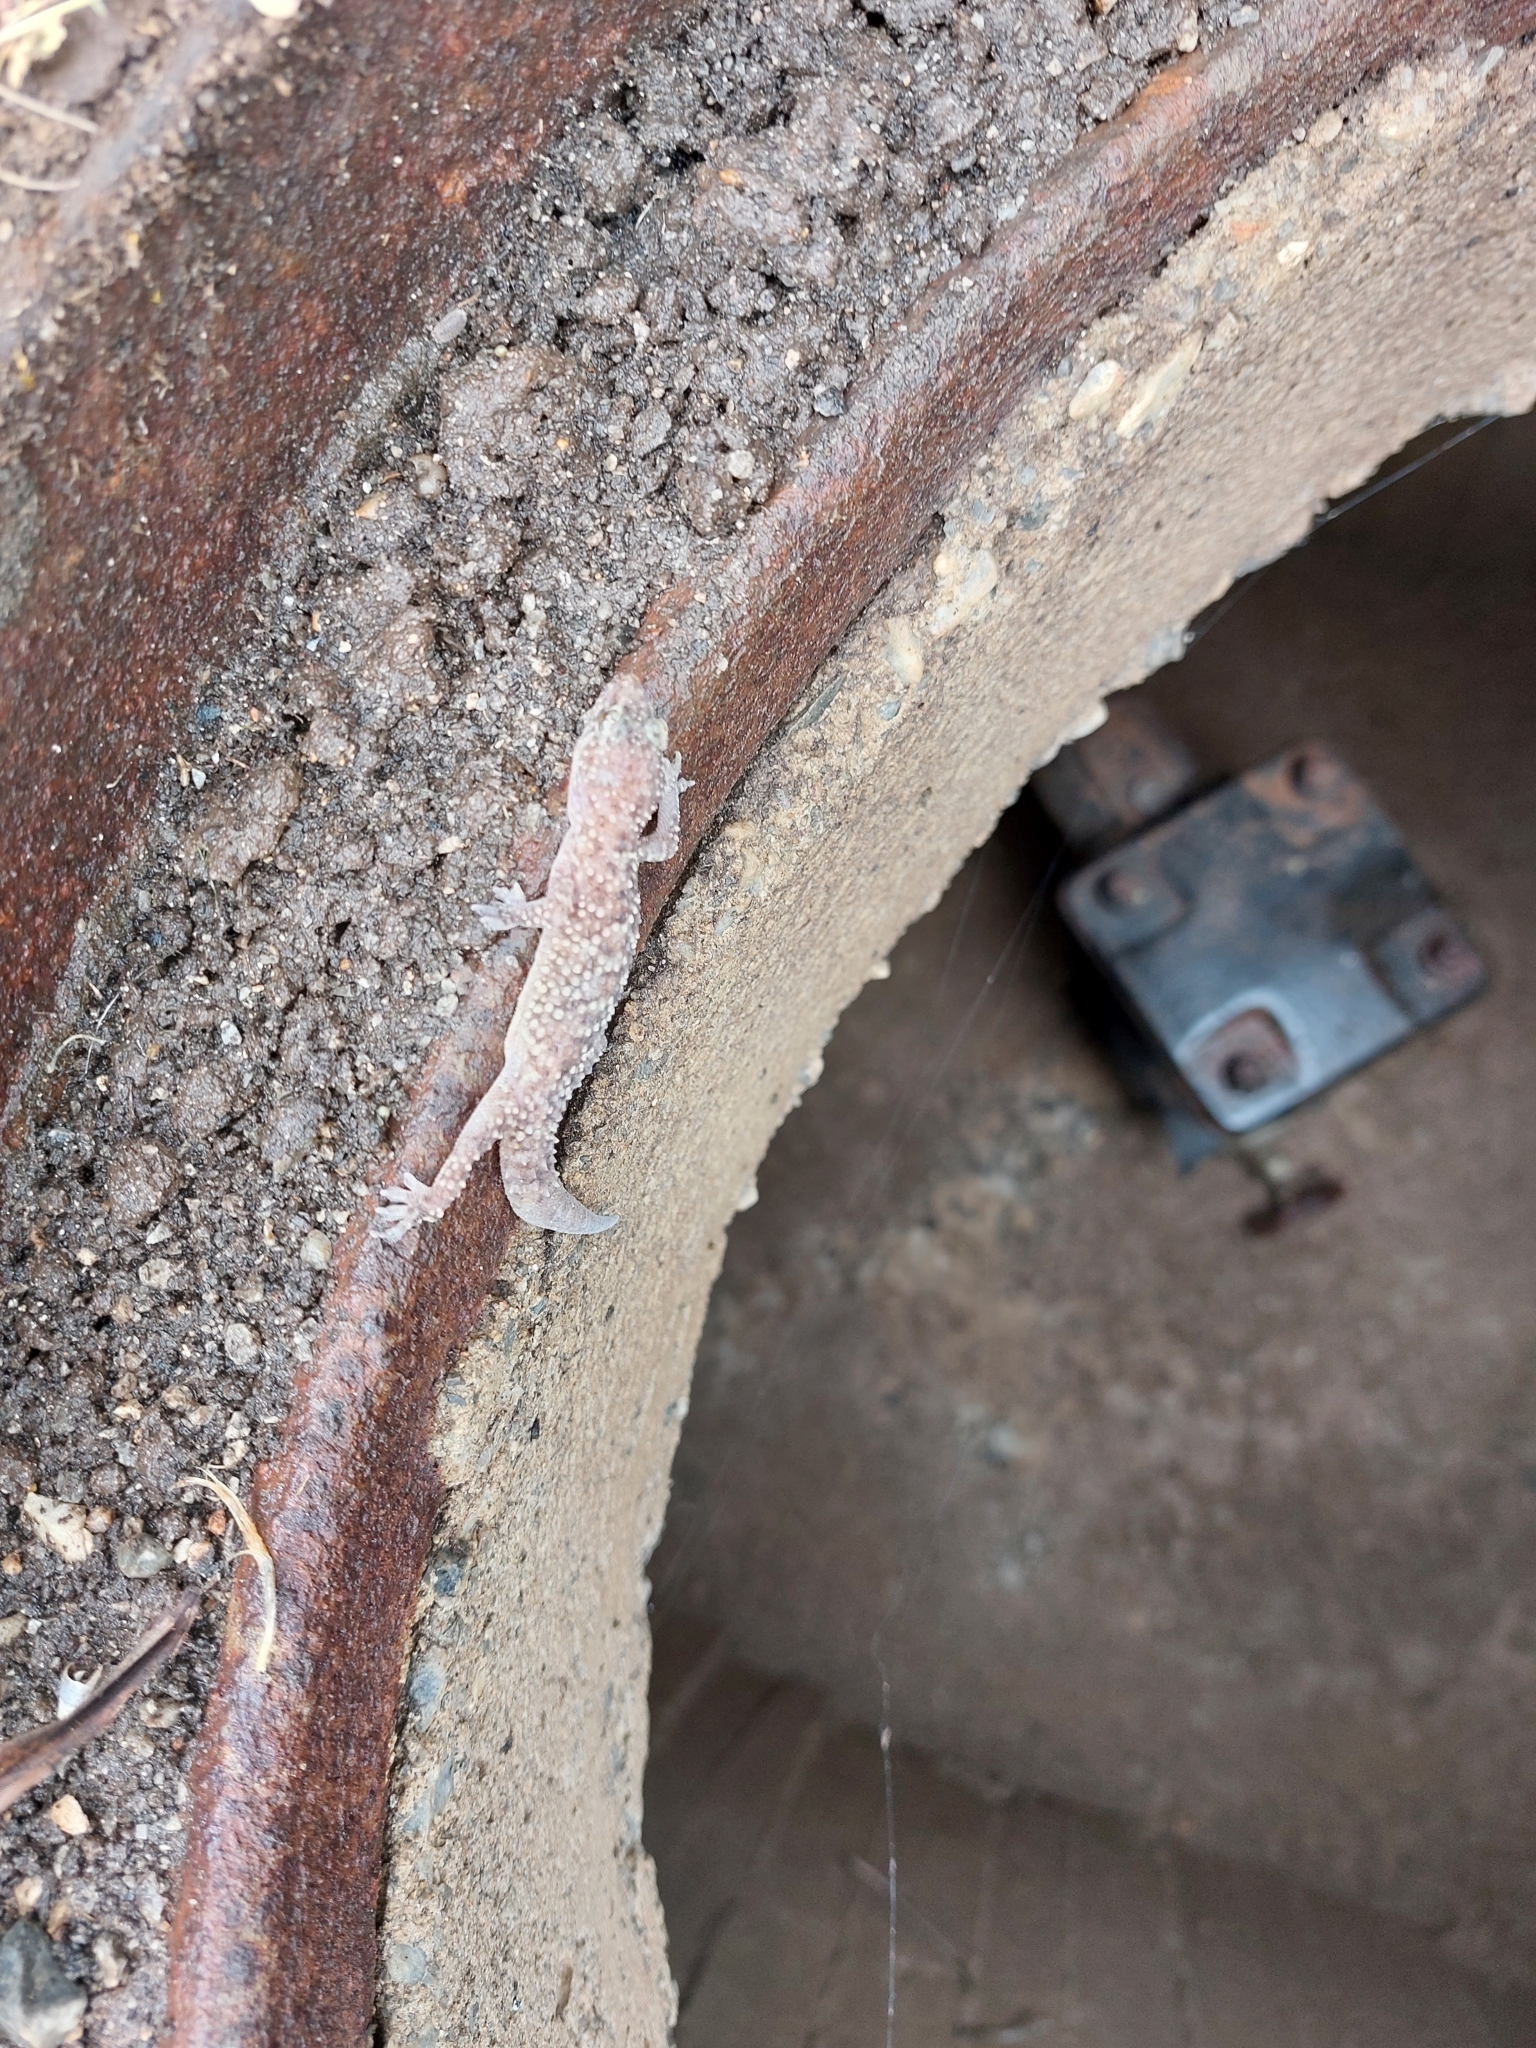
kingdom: Animalia
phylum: Chordata
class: Squamata
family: Gekkonidae
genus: Hemidactylus
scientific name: Hemidactylus turcicus
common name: Turkish gecko
